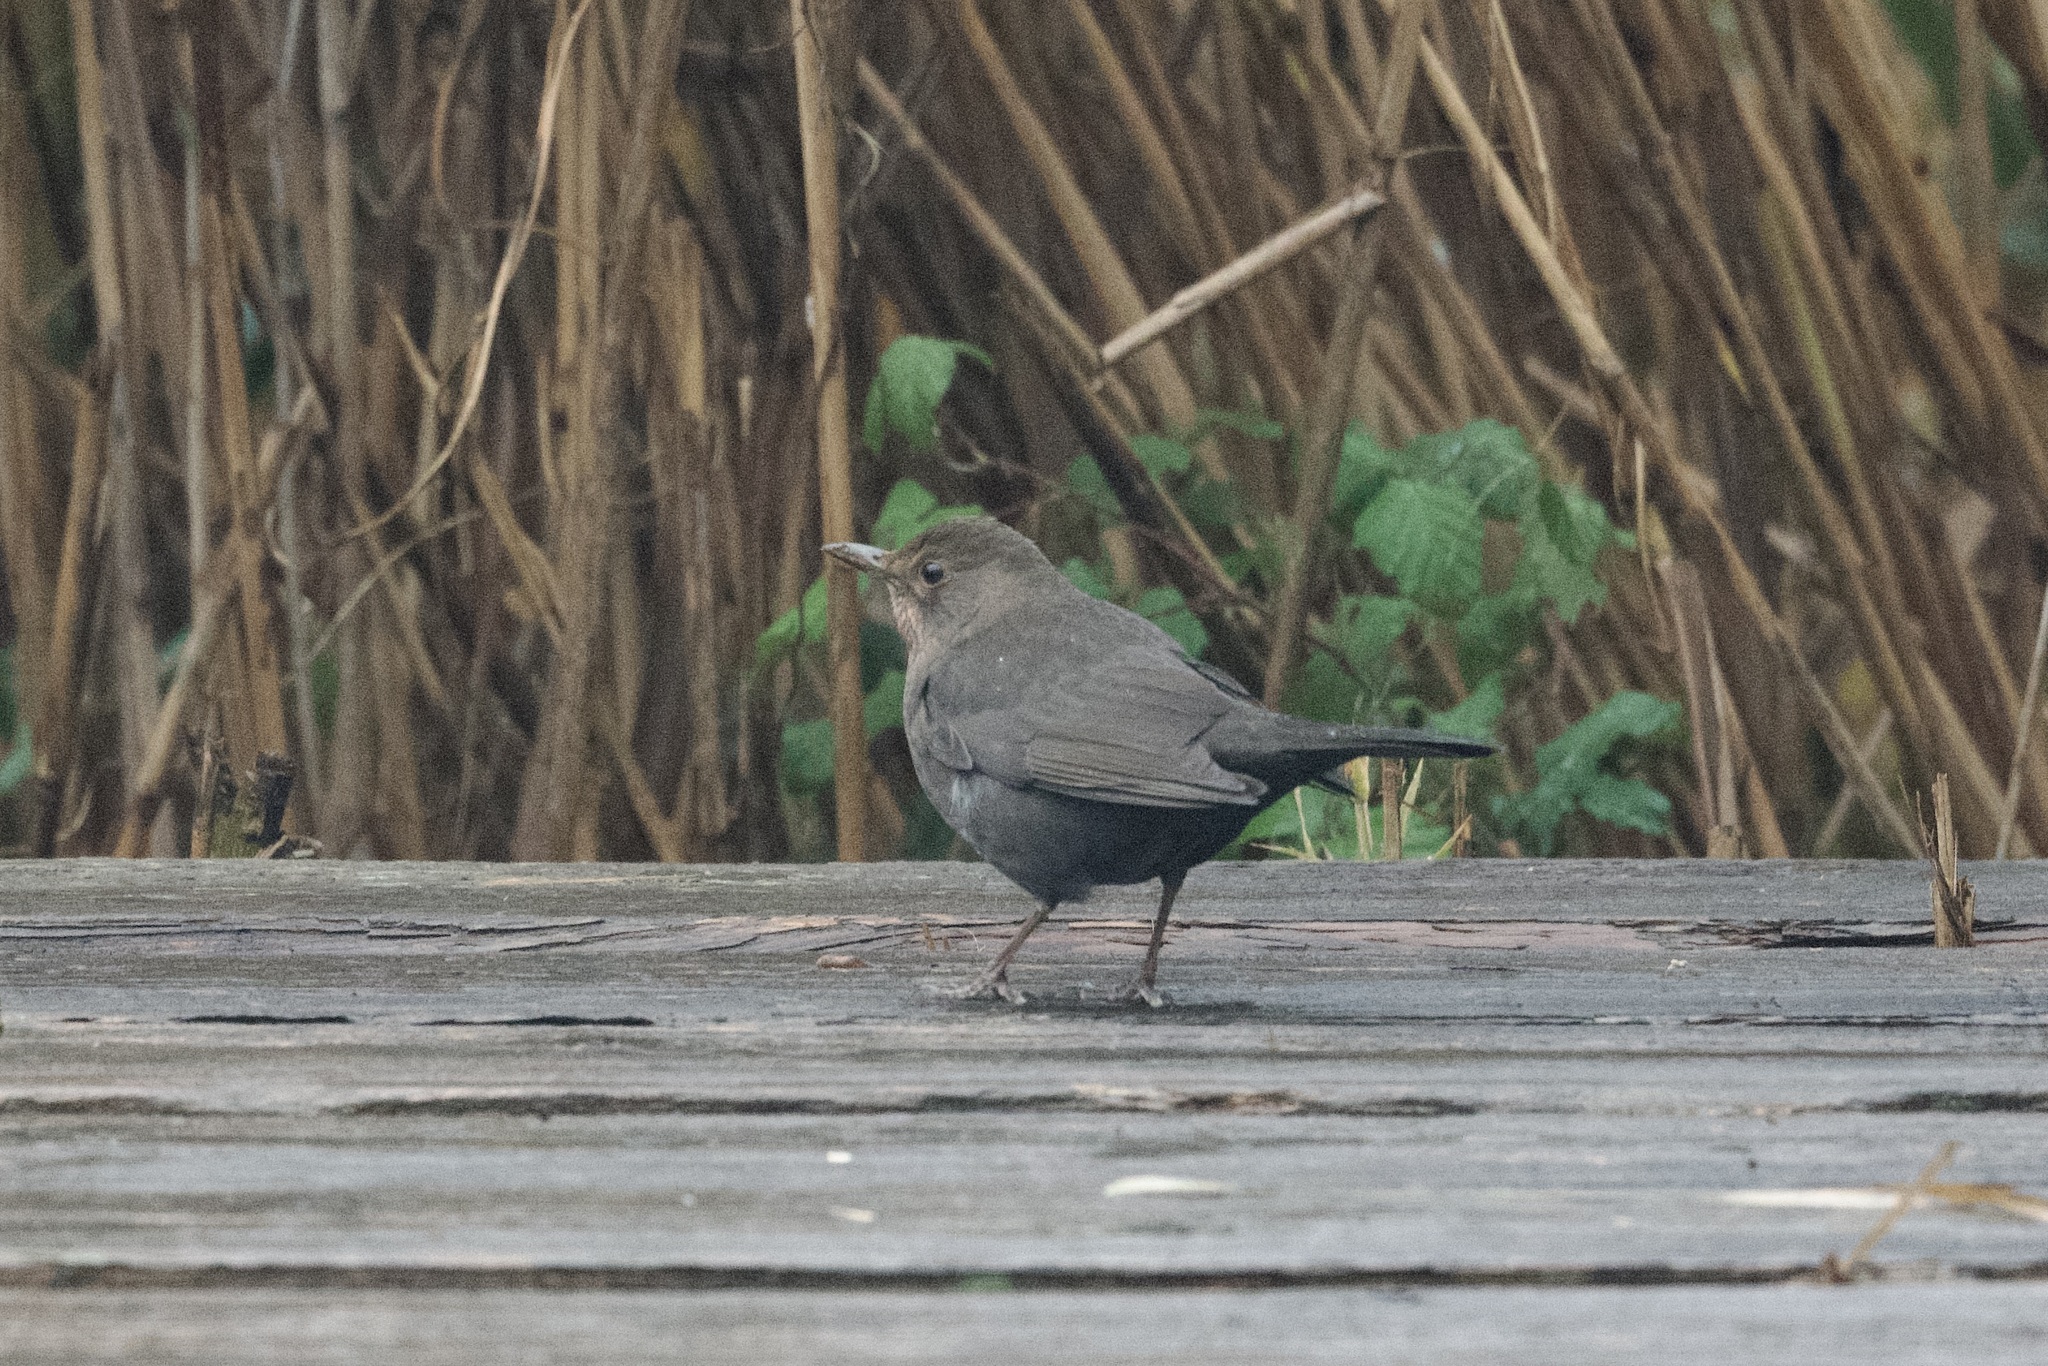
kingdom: Animalia
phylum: Chordata
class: Aves
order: Passeriformes
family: Turdidae
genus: Turdus
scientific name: Turdus merula
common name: Common blackbird
